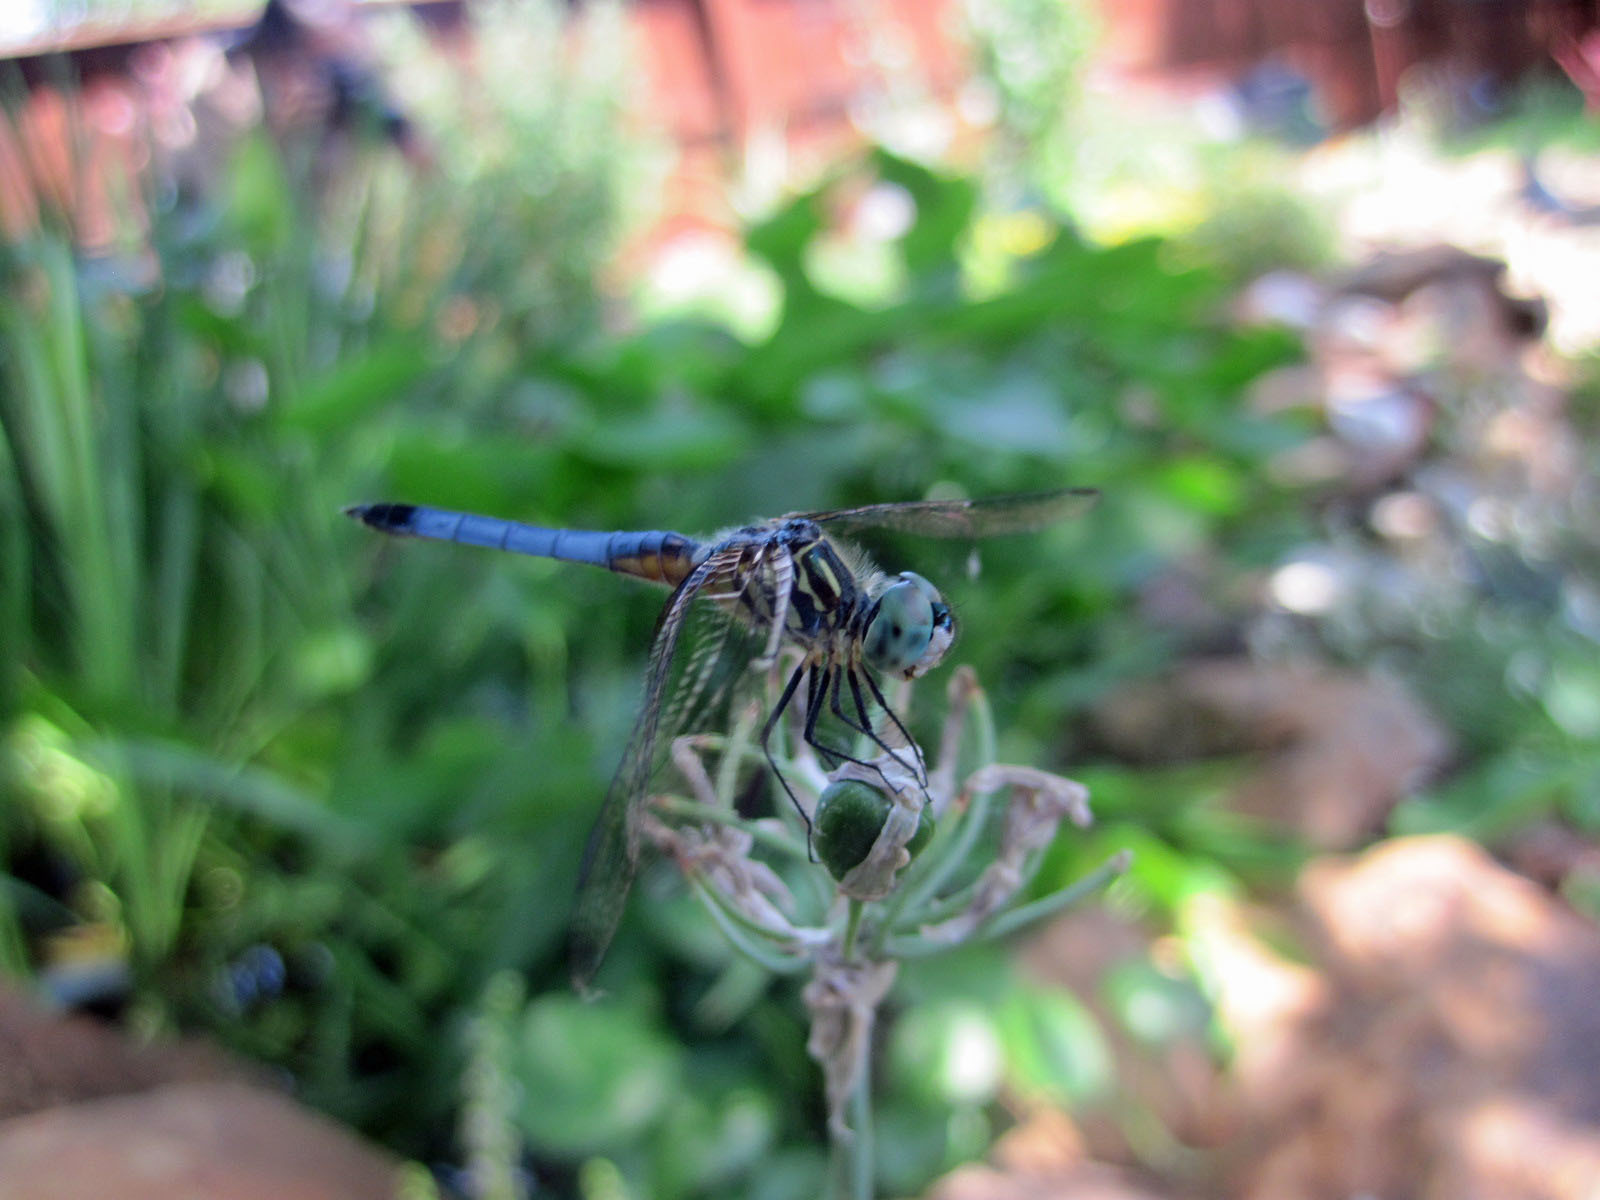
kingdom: Animalia
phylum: Arthropoda
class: Insecta
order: Odonata
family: Libellulidae
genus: Pachydiplax
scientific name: Pachydiplax longipennis
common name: Blue dasher
